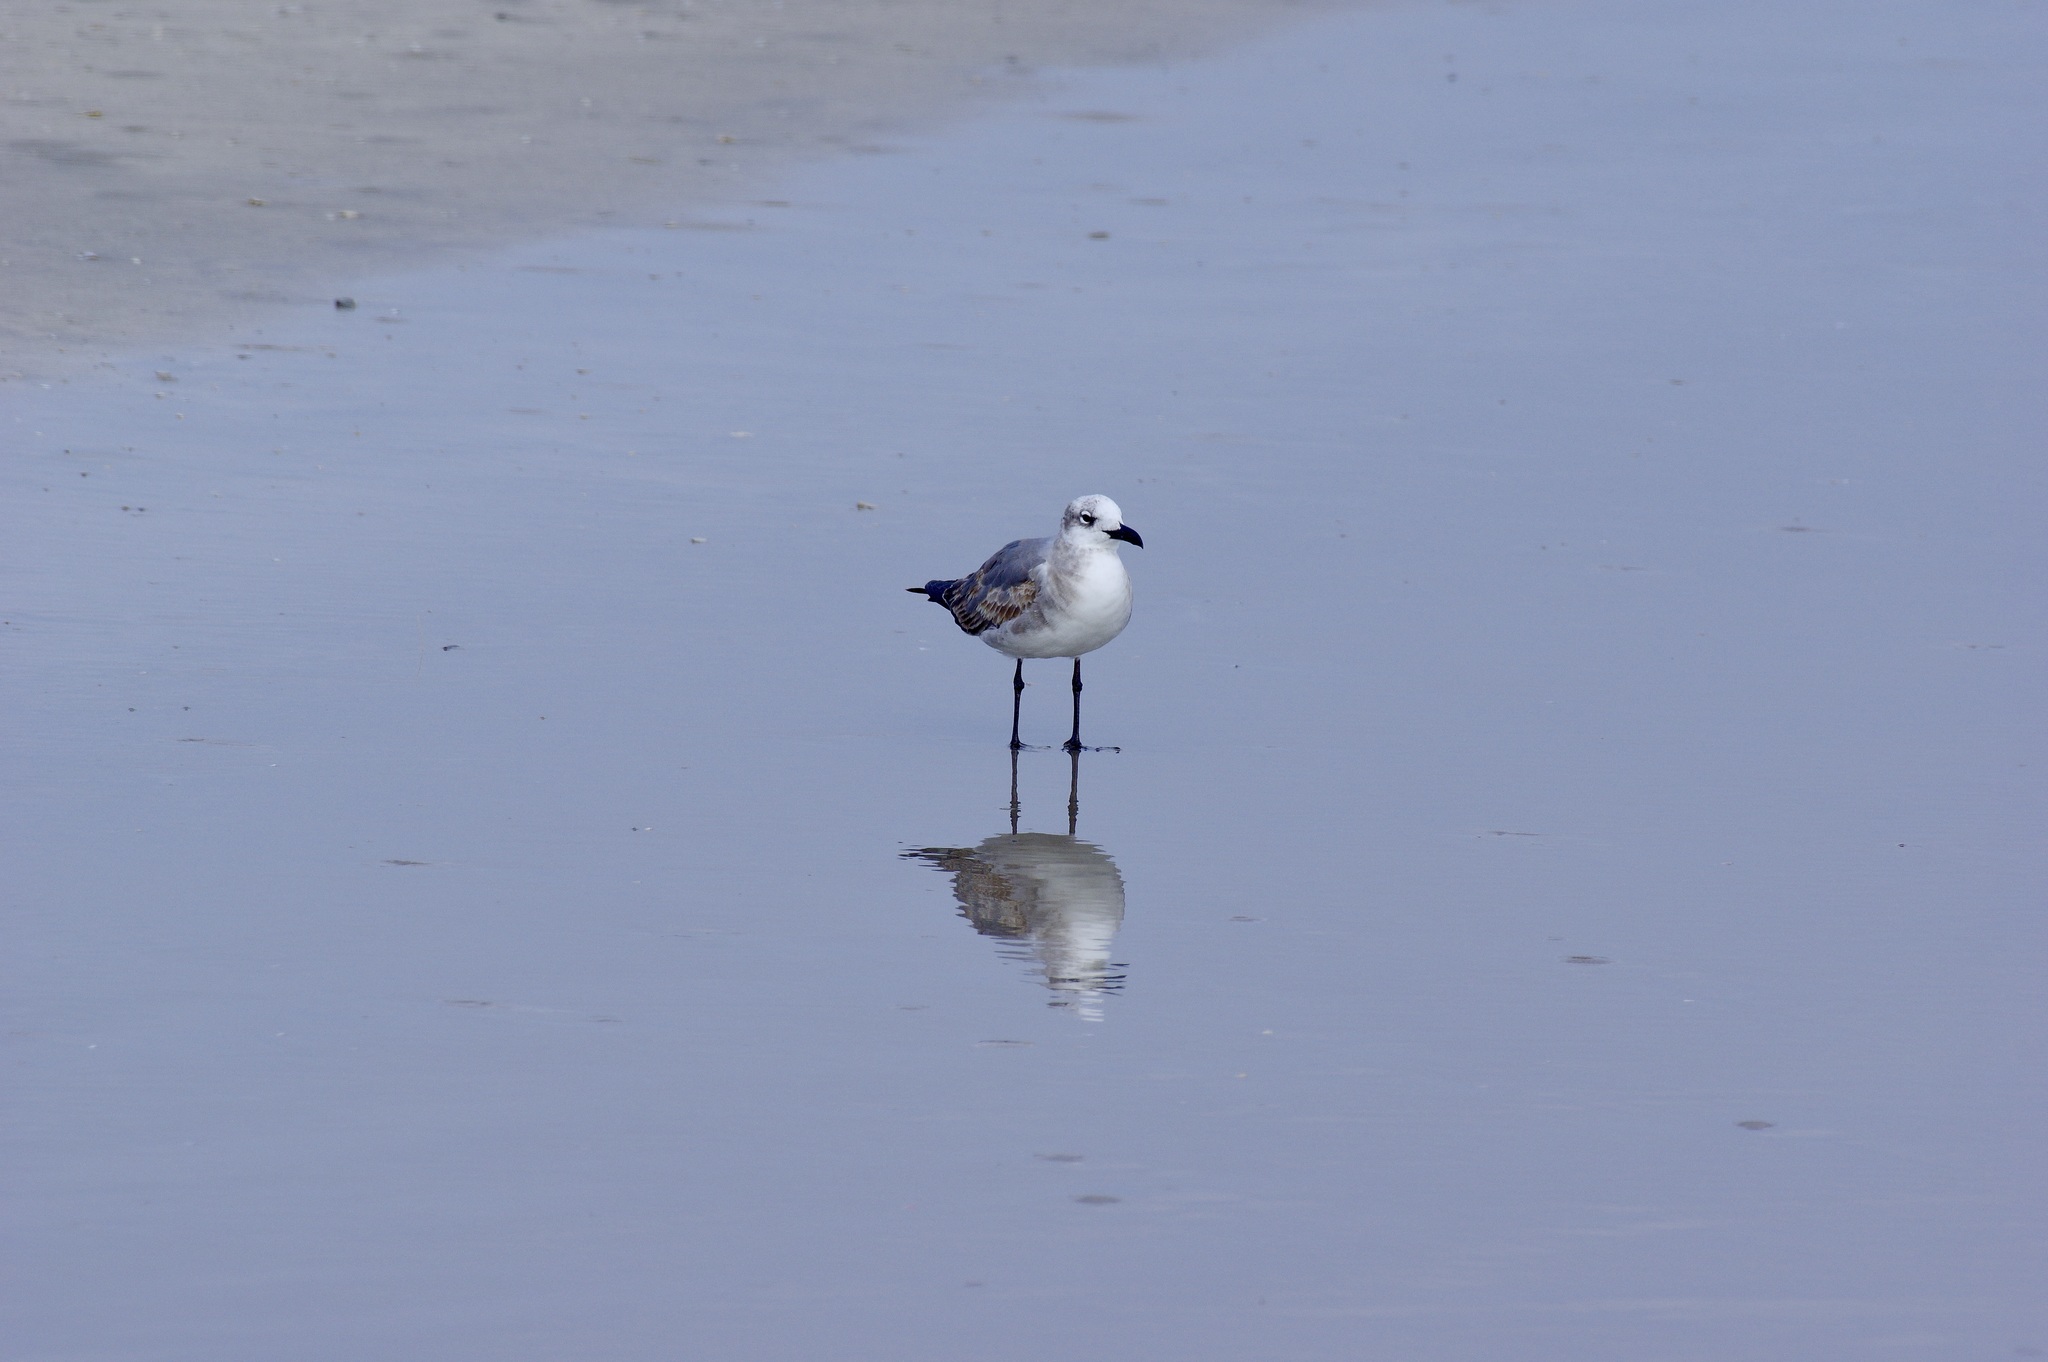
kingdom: Animalia
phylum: Chordata
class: Aves
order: Charadriiformes
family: Laridae
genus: Leucophaeus
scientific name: Leucophaeus atricilla
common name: Laughing gull
